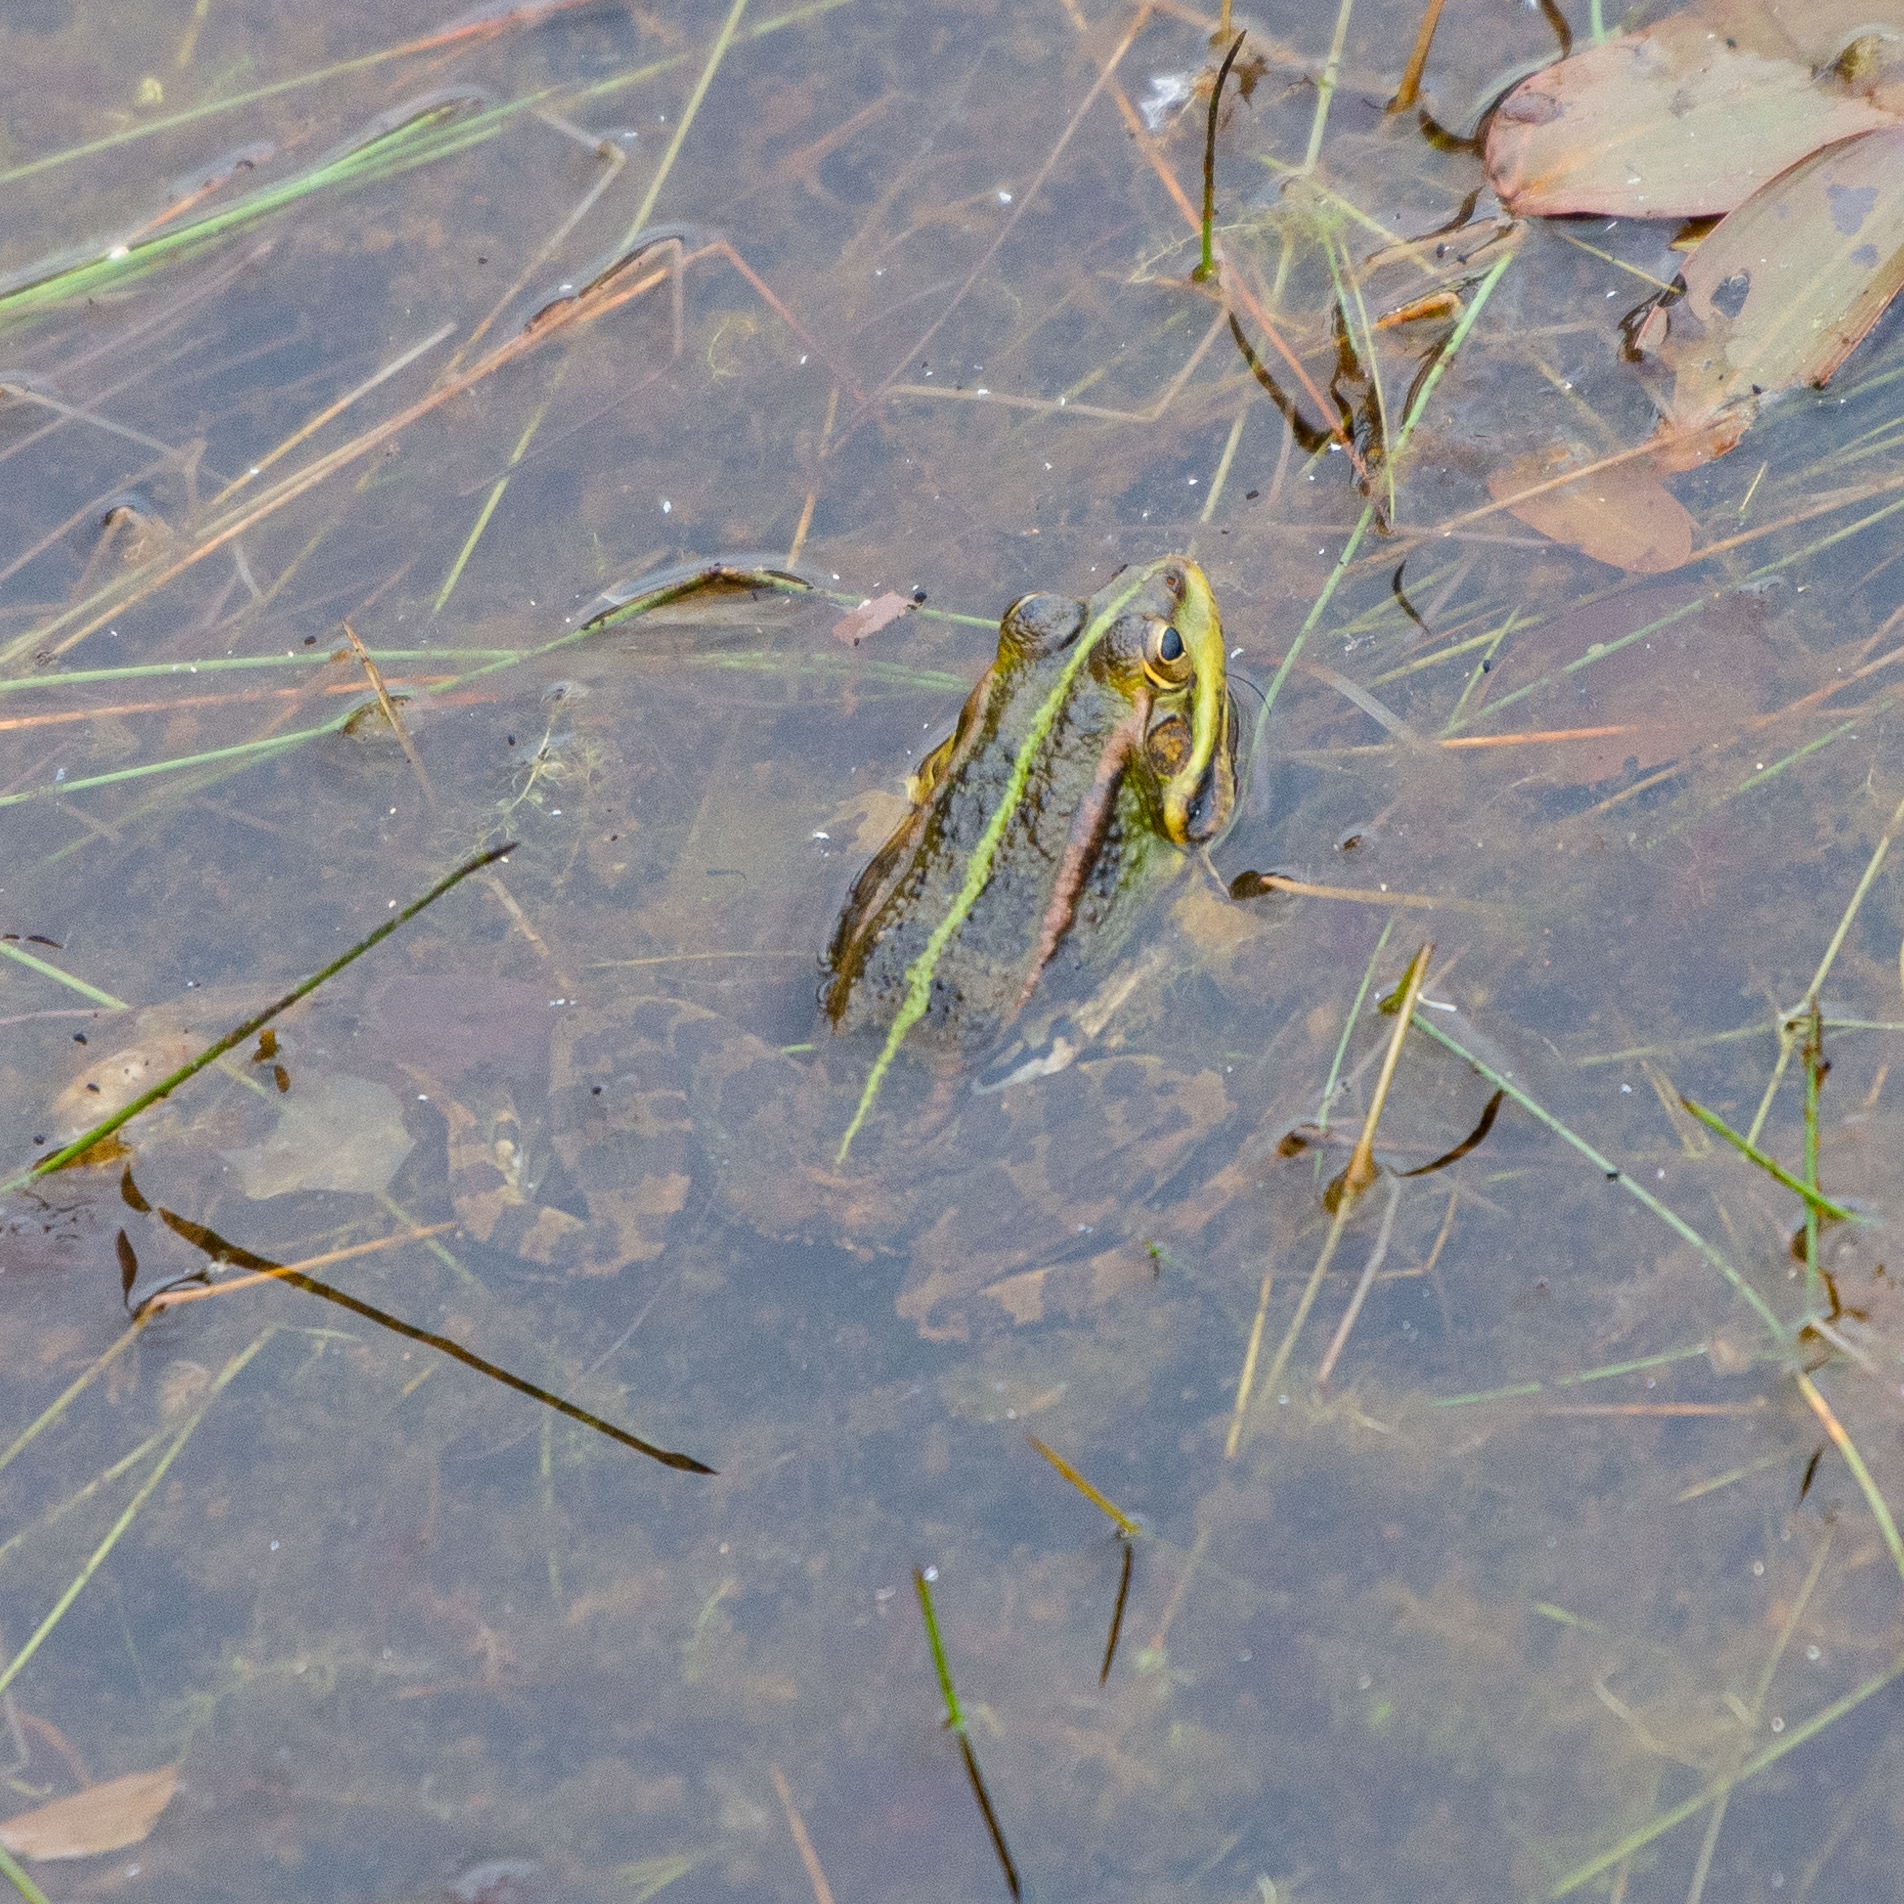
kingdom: Animalia
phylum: Chordata
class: Amphibia
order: Anura
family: Ranidae
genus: Pelophylax
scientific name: Pelophylax perezi
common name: Perez's frog
